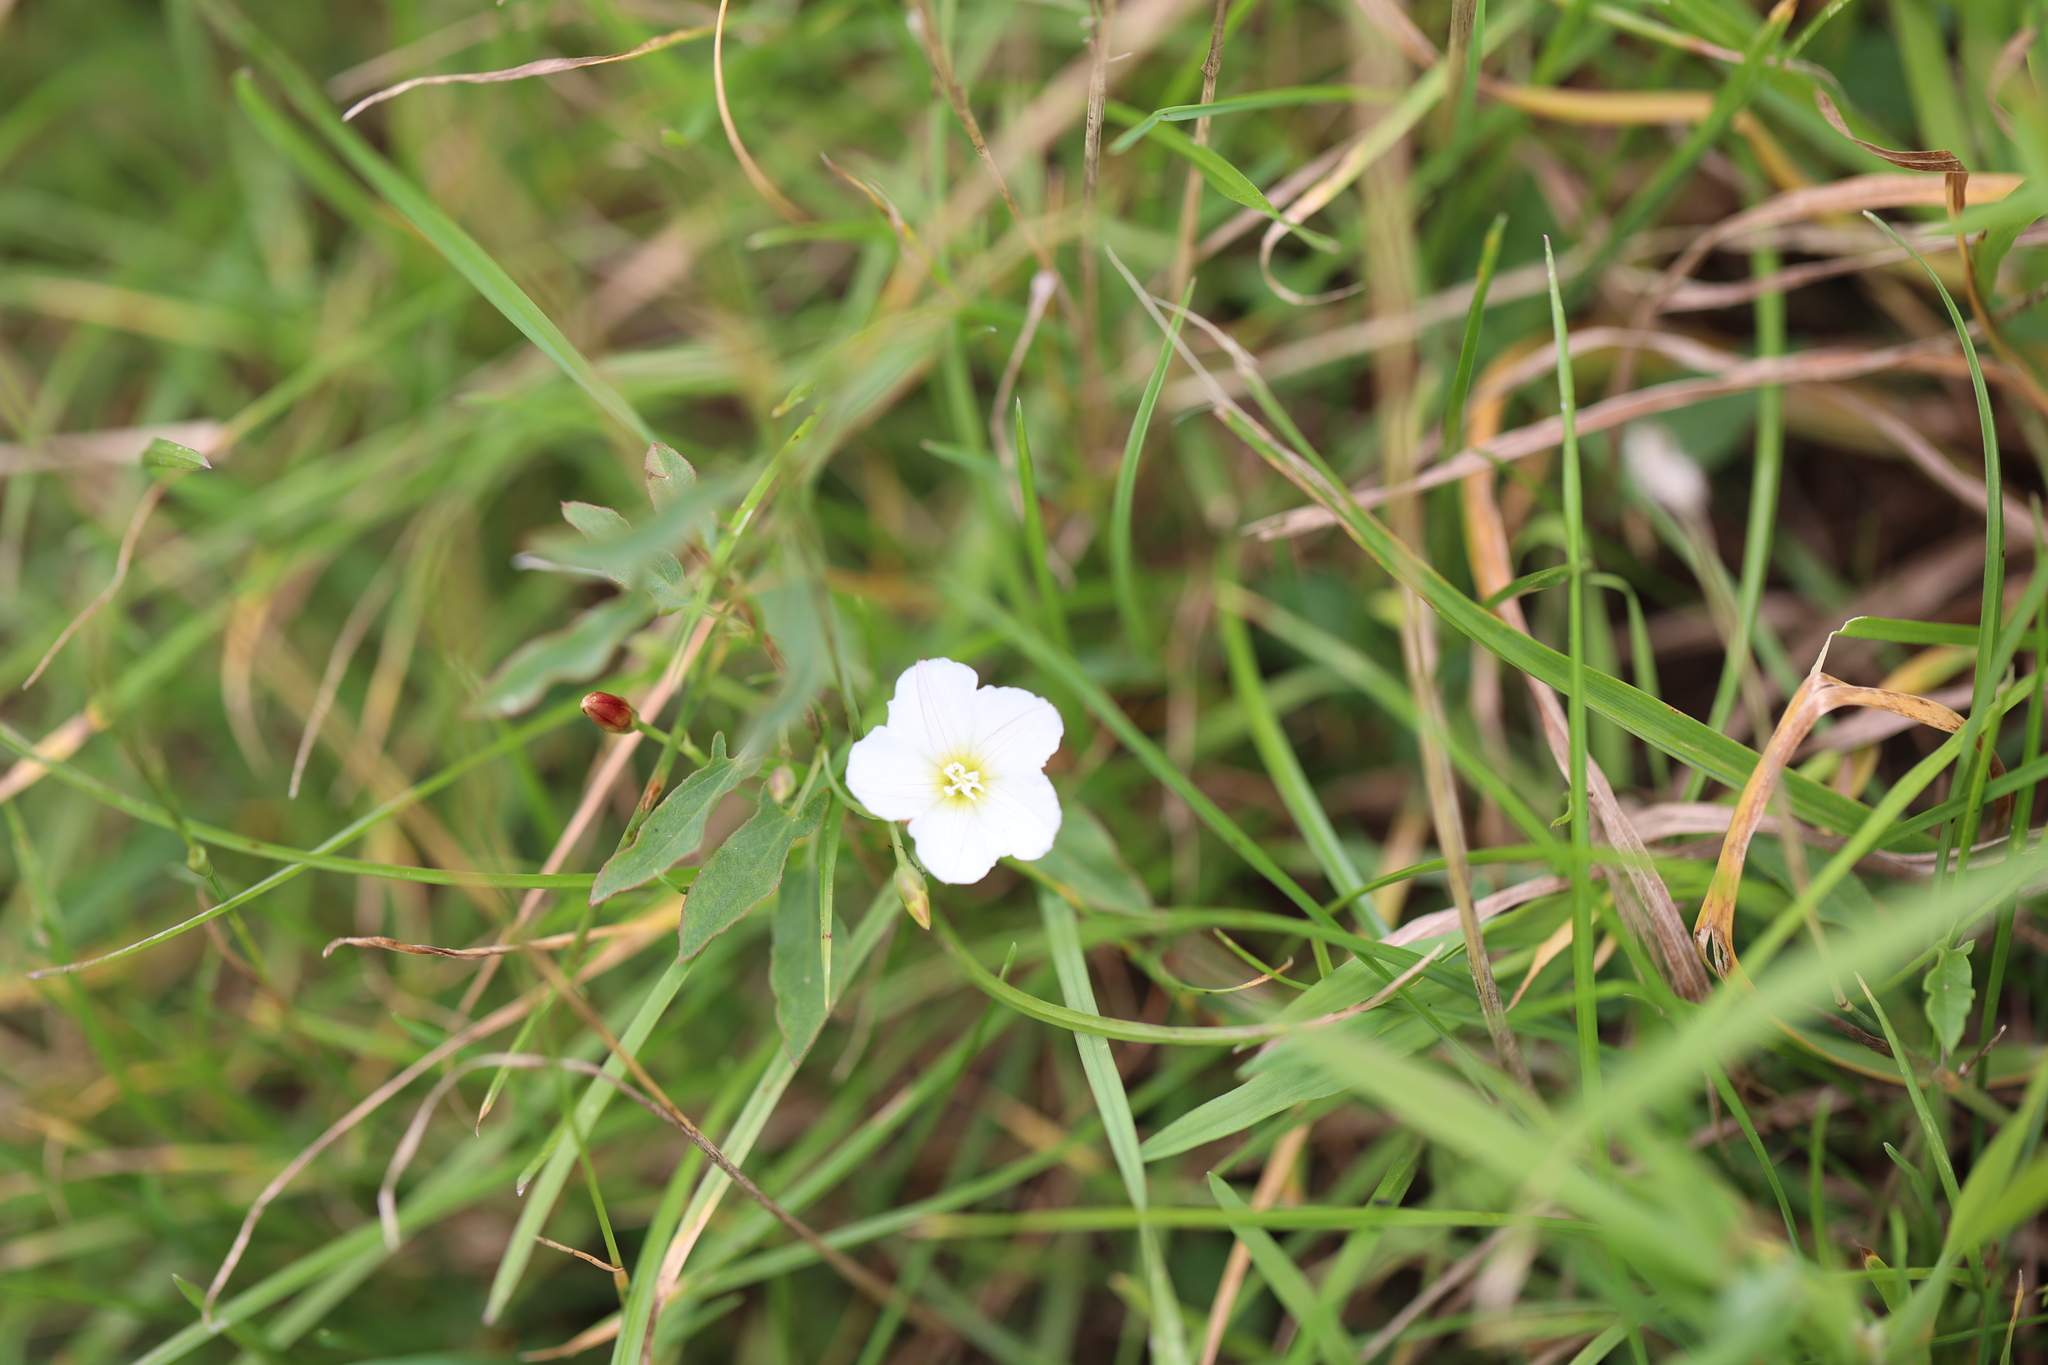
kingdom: Plantae
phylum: Tracheophyta
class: Magnoliopsida
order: Solanales
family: Convolvulaceae
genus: Convolvulus
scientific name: Convolvulus arvensis
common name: Field bindweed
